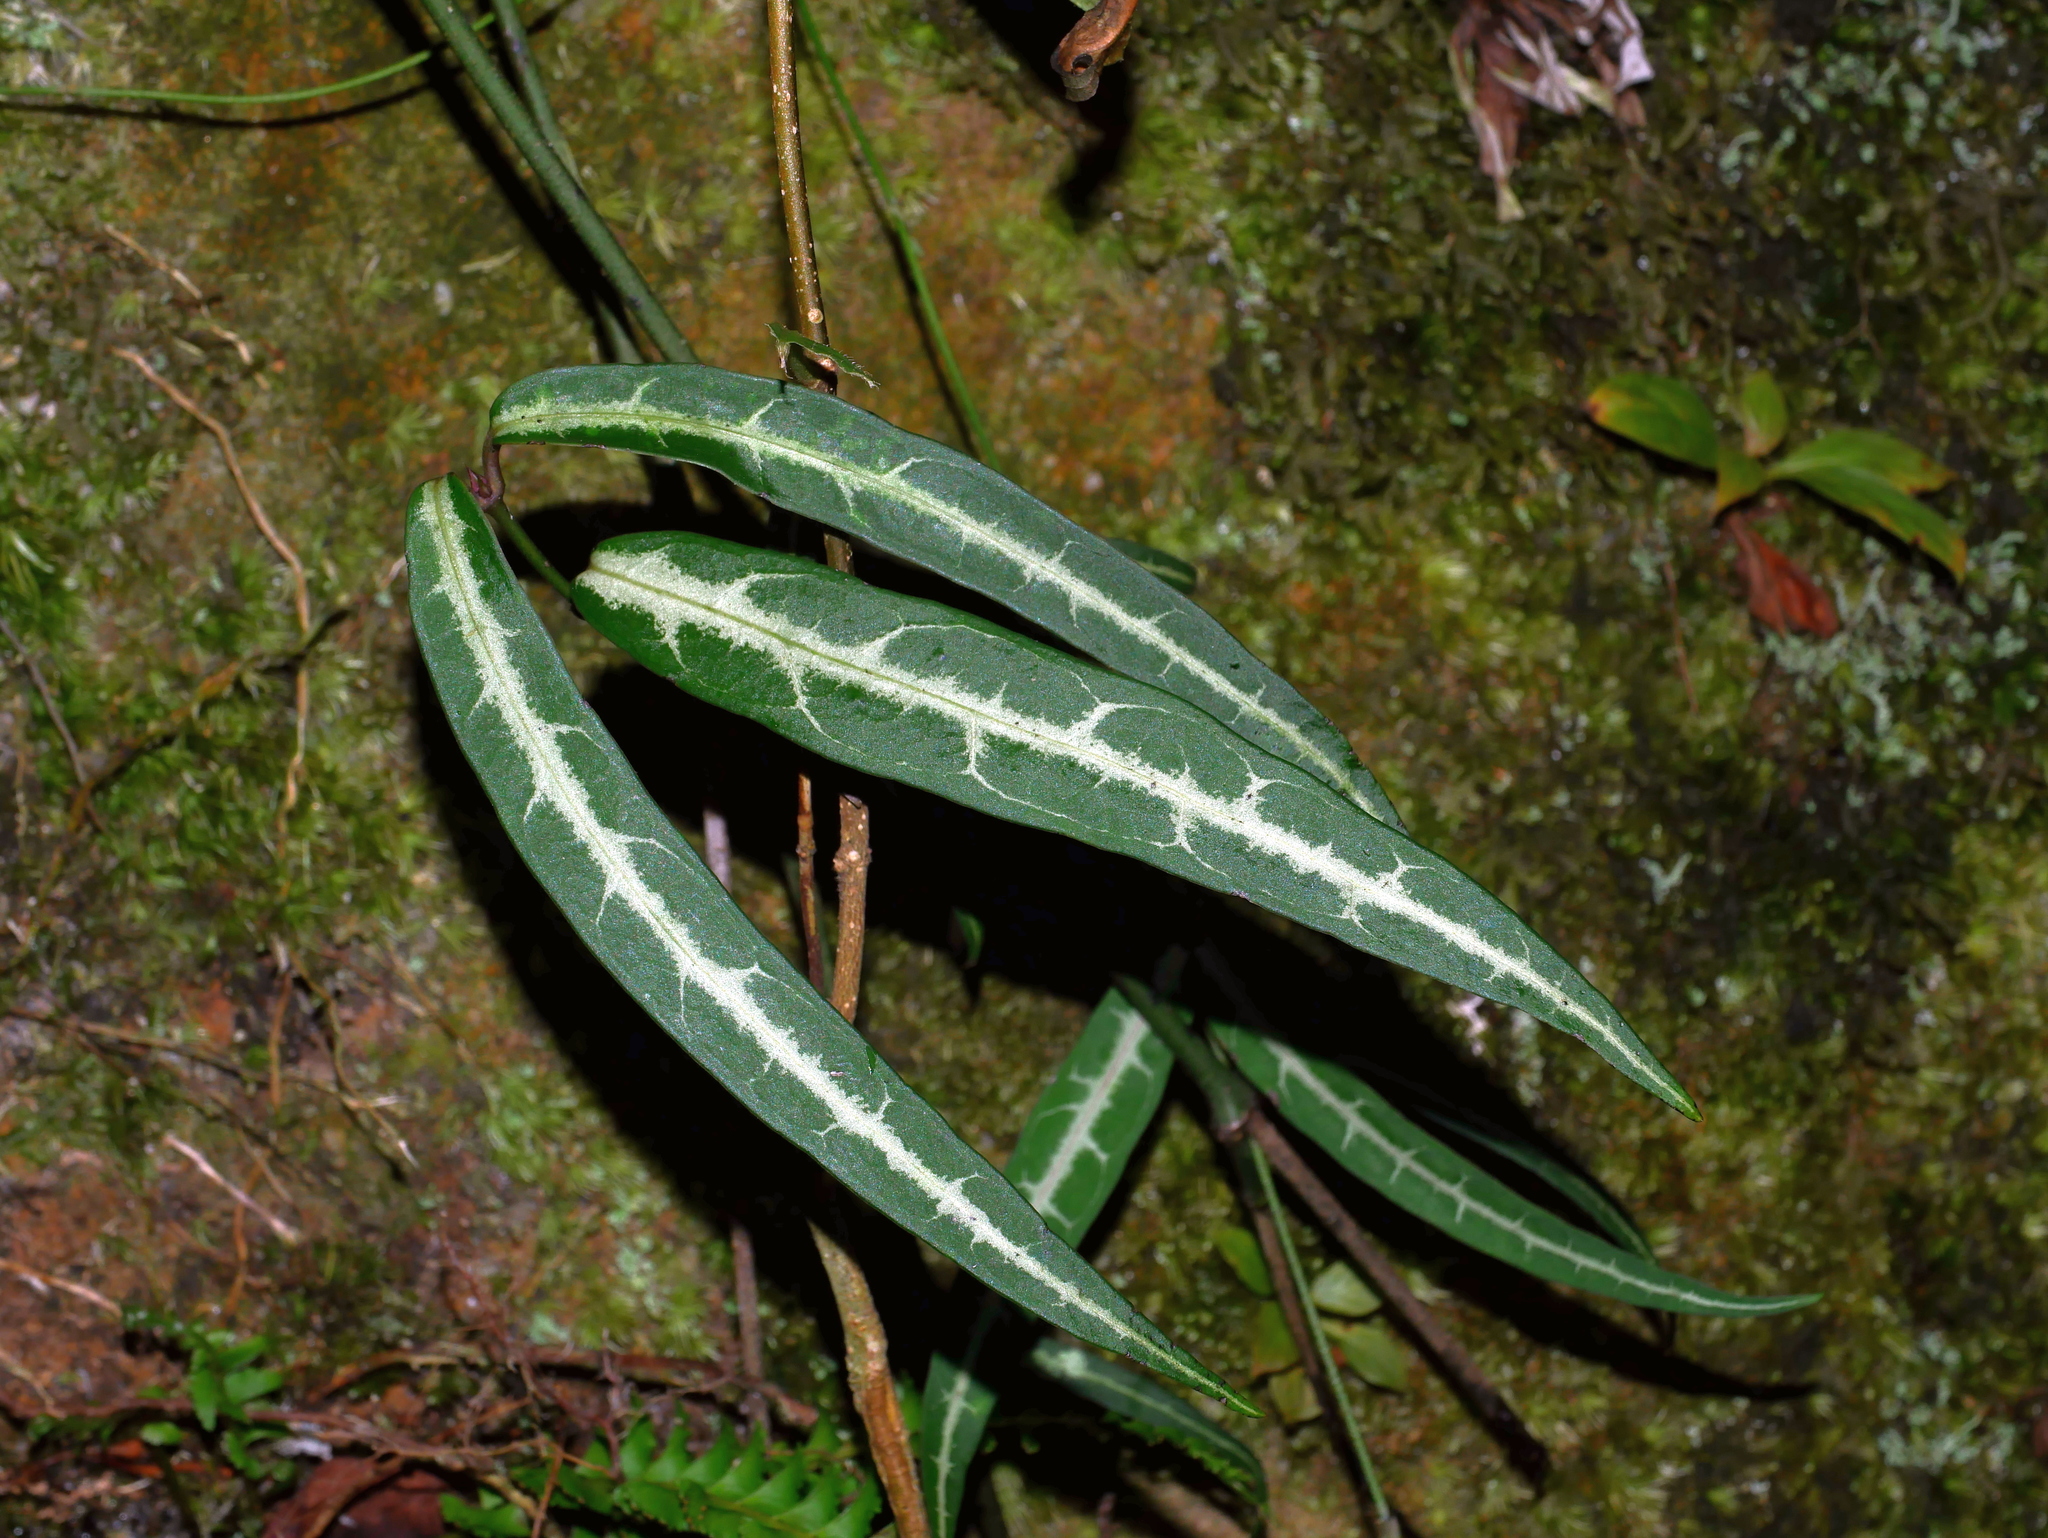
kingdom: Plantae
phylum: Tracheophyta
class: Magnoliopsida
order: Gentianales
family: Loganiaceae
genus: Gardneria
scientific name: Gardneria multiflora
